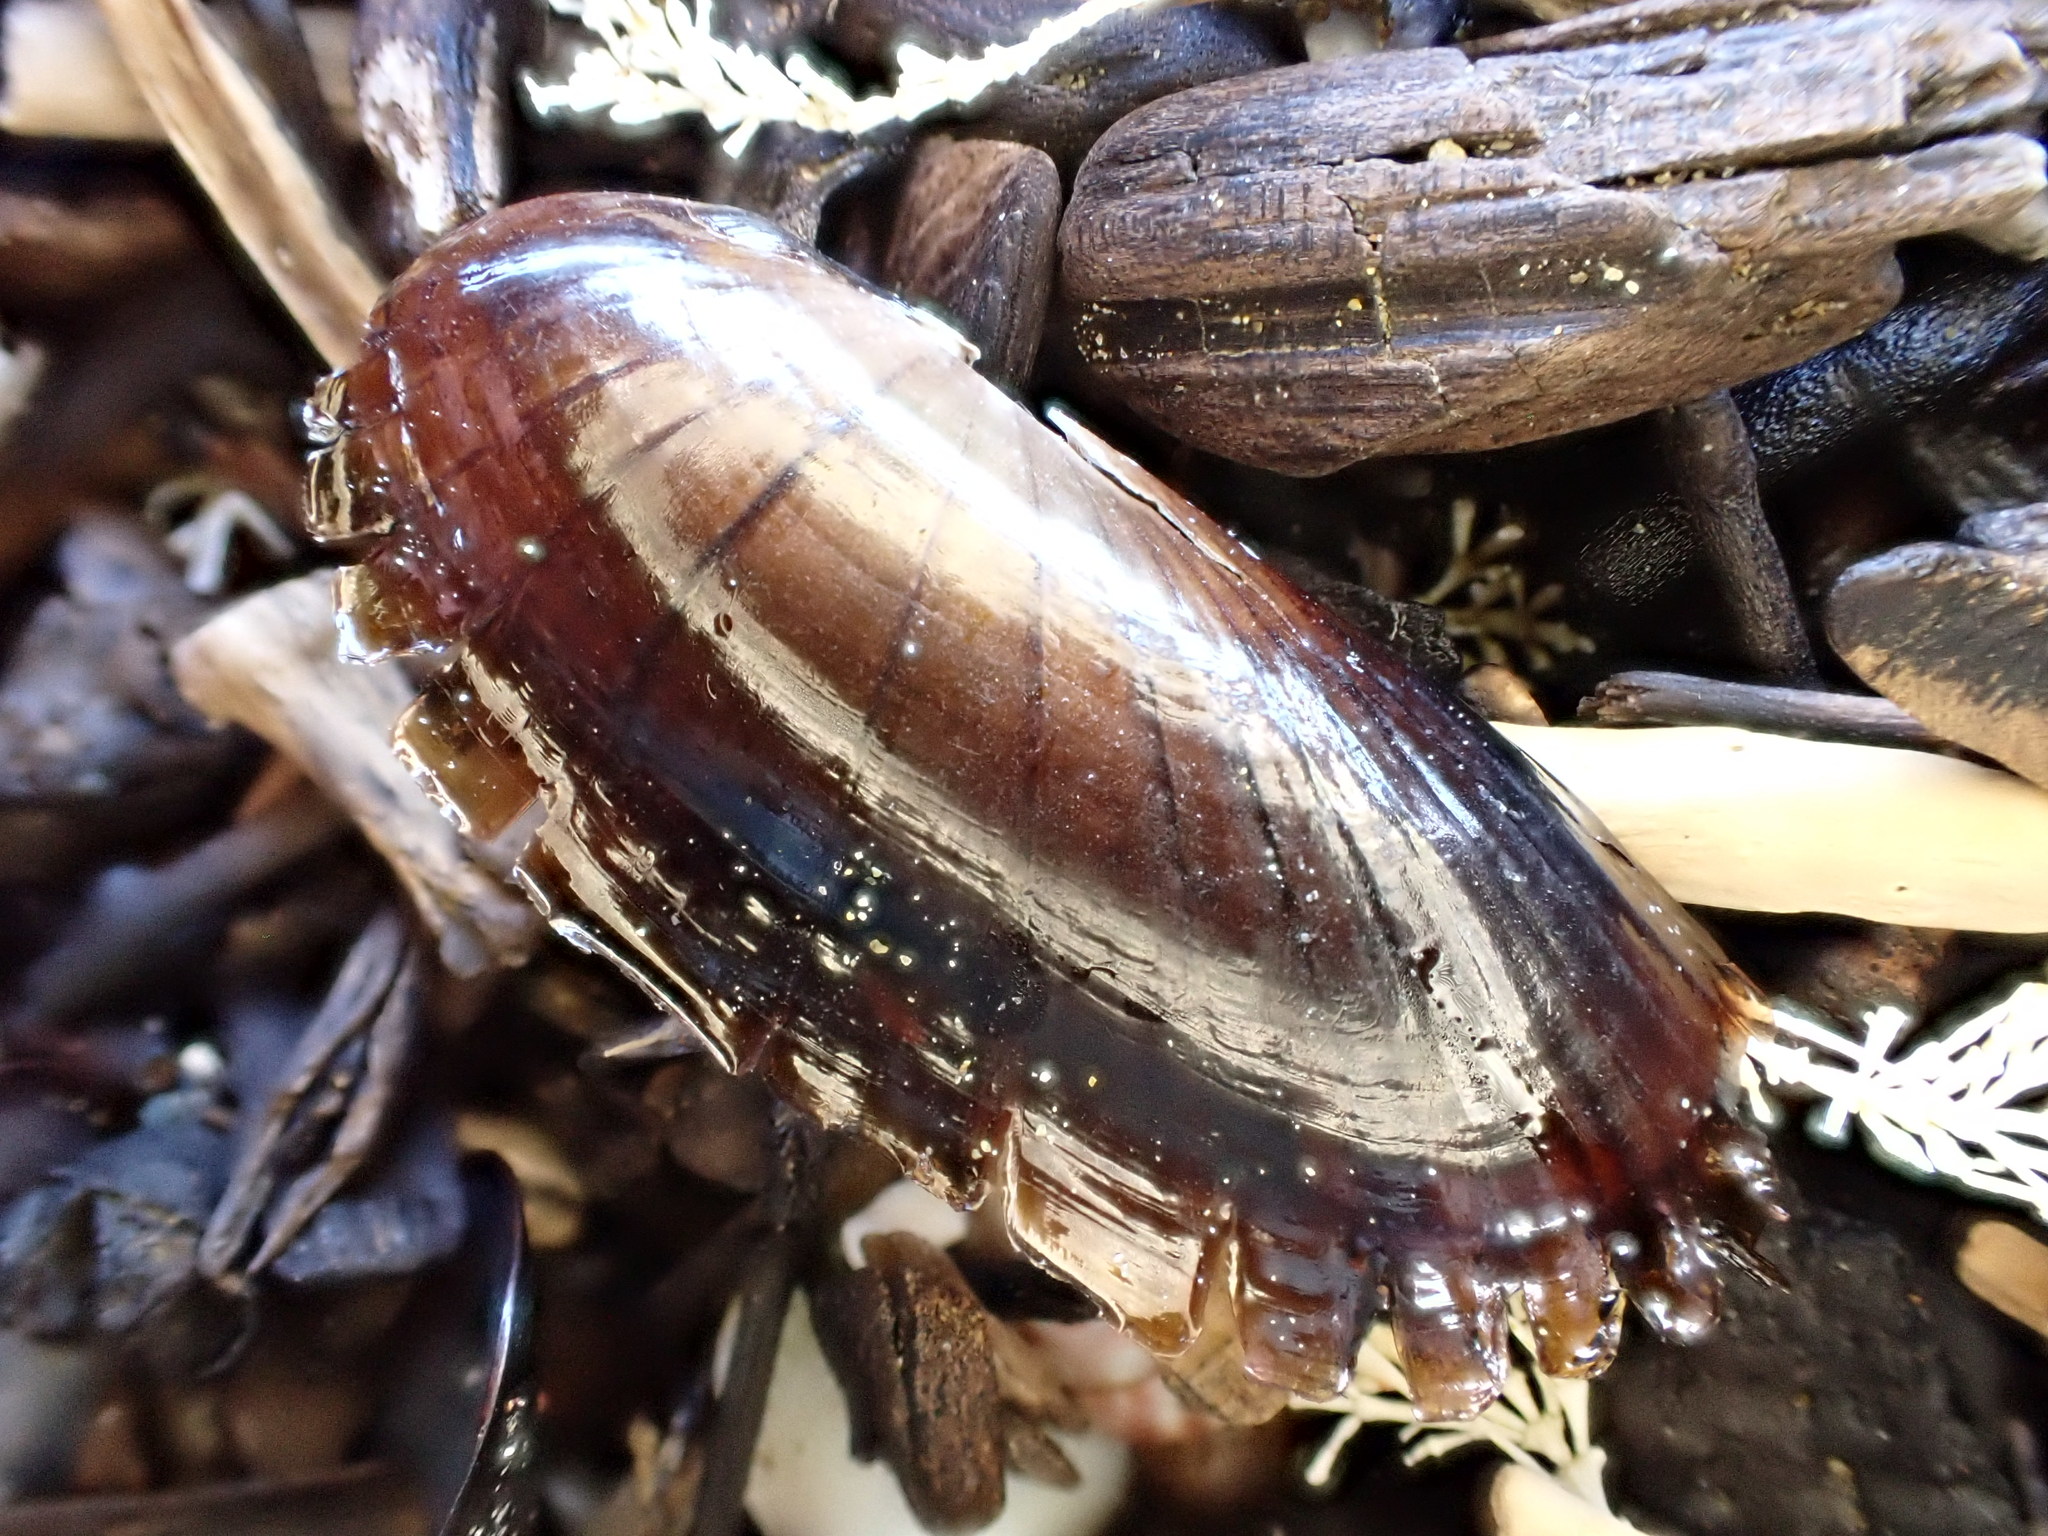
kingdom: Animalia
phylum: Mollusca
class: Bivalvia
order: Solemyida
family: Solemyidae
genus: Solemya
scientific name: Solemya parkinsonii
